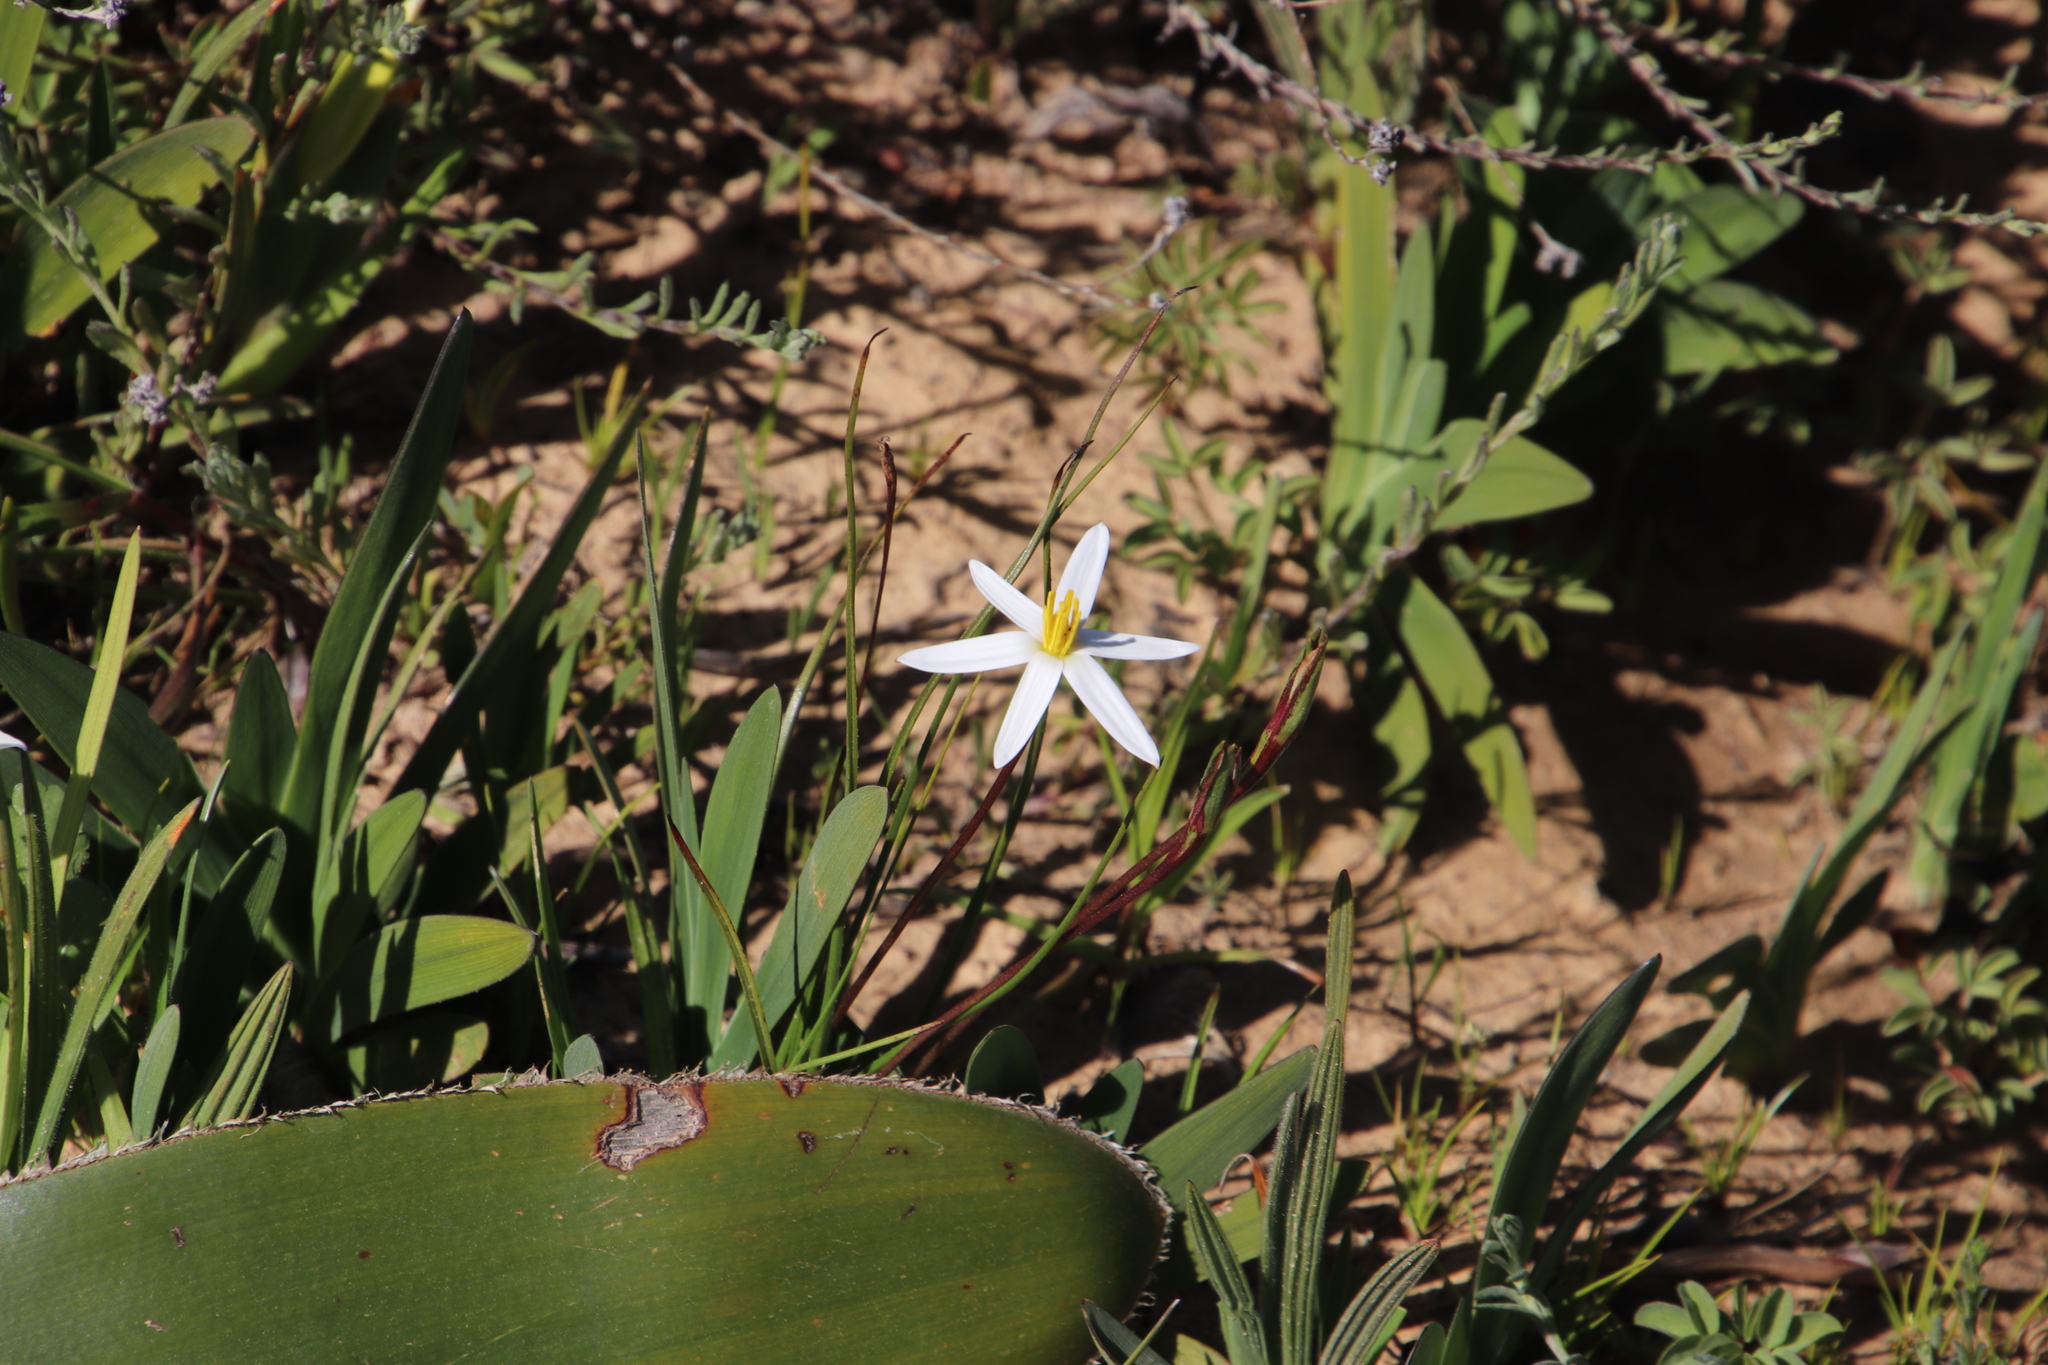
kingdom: Plantae
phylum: Tracheophyta
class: Liliopsida
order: Asparagales
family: Hypoxidaceae
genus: Pauridia
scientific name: Pauridia serrata
